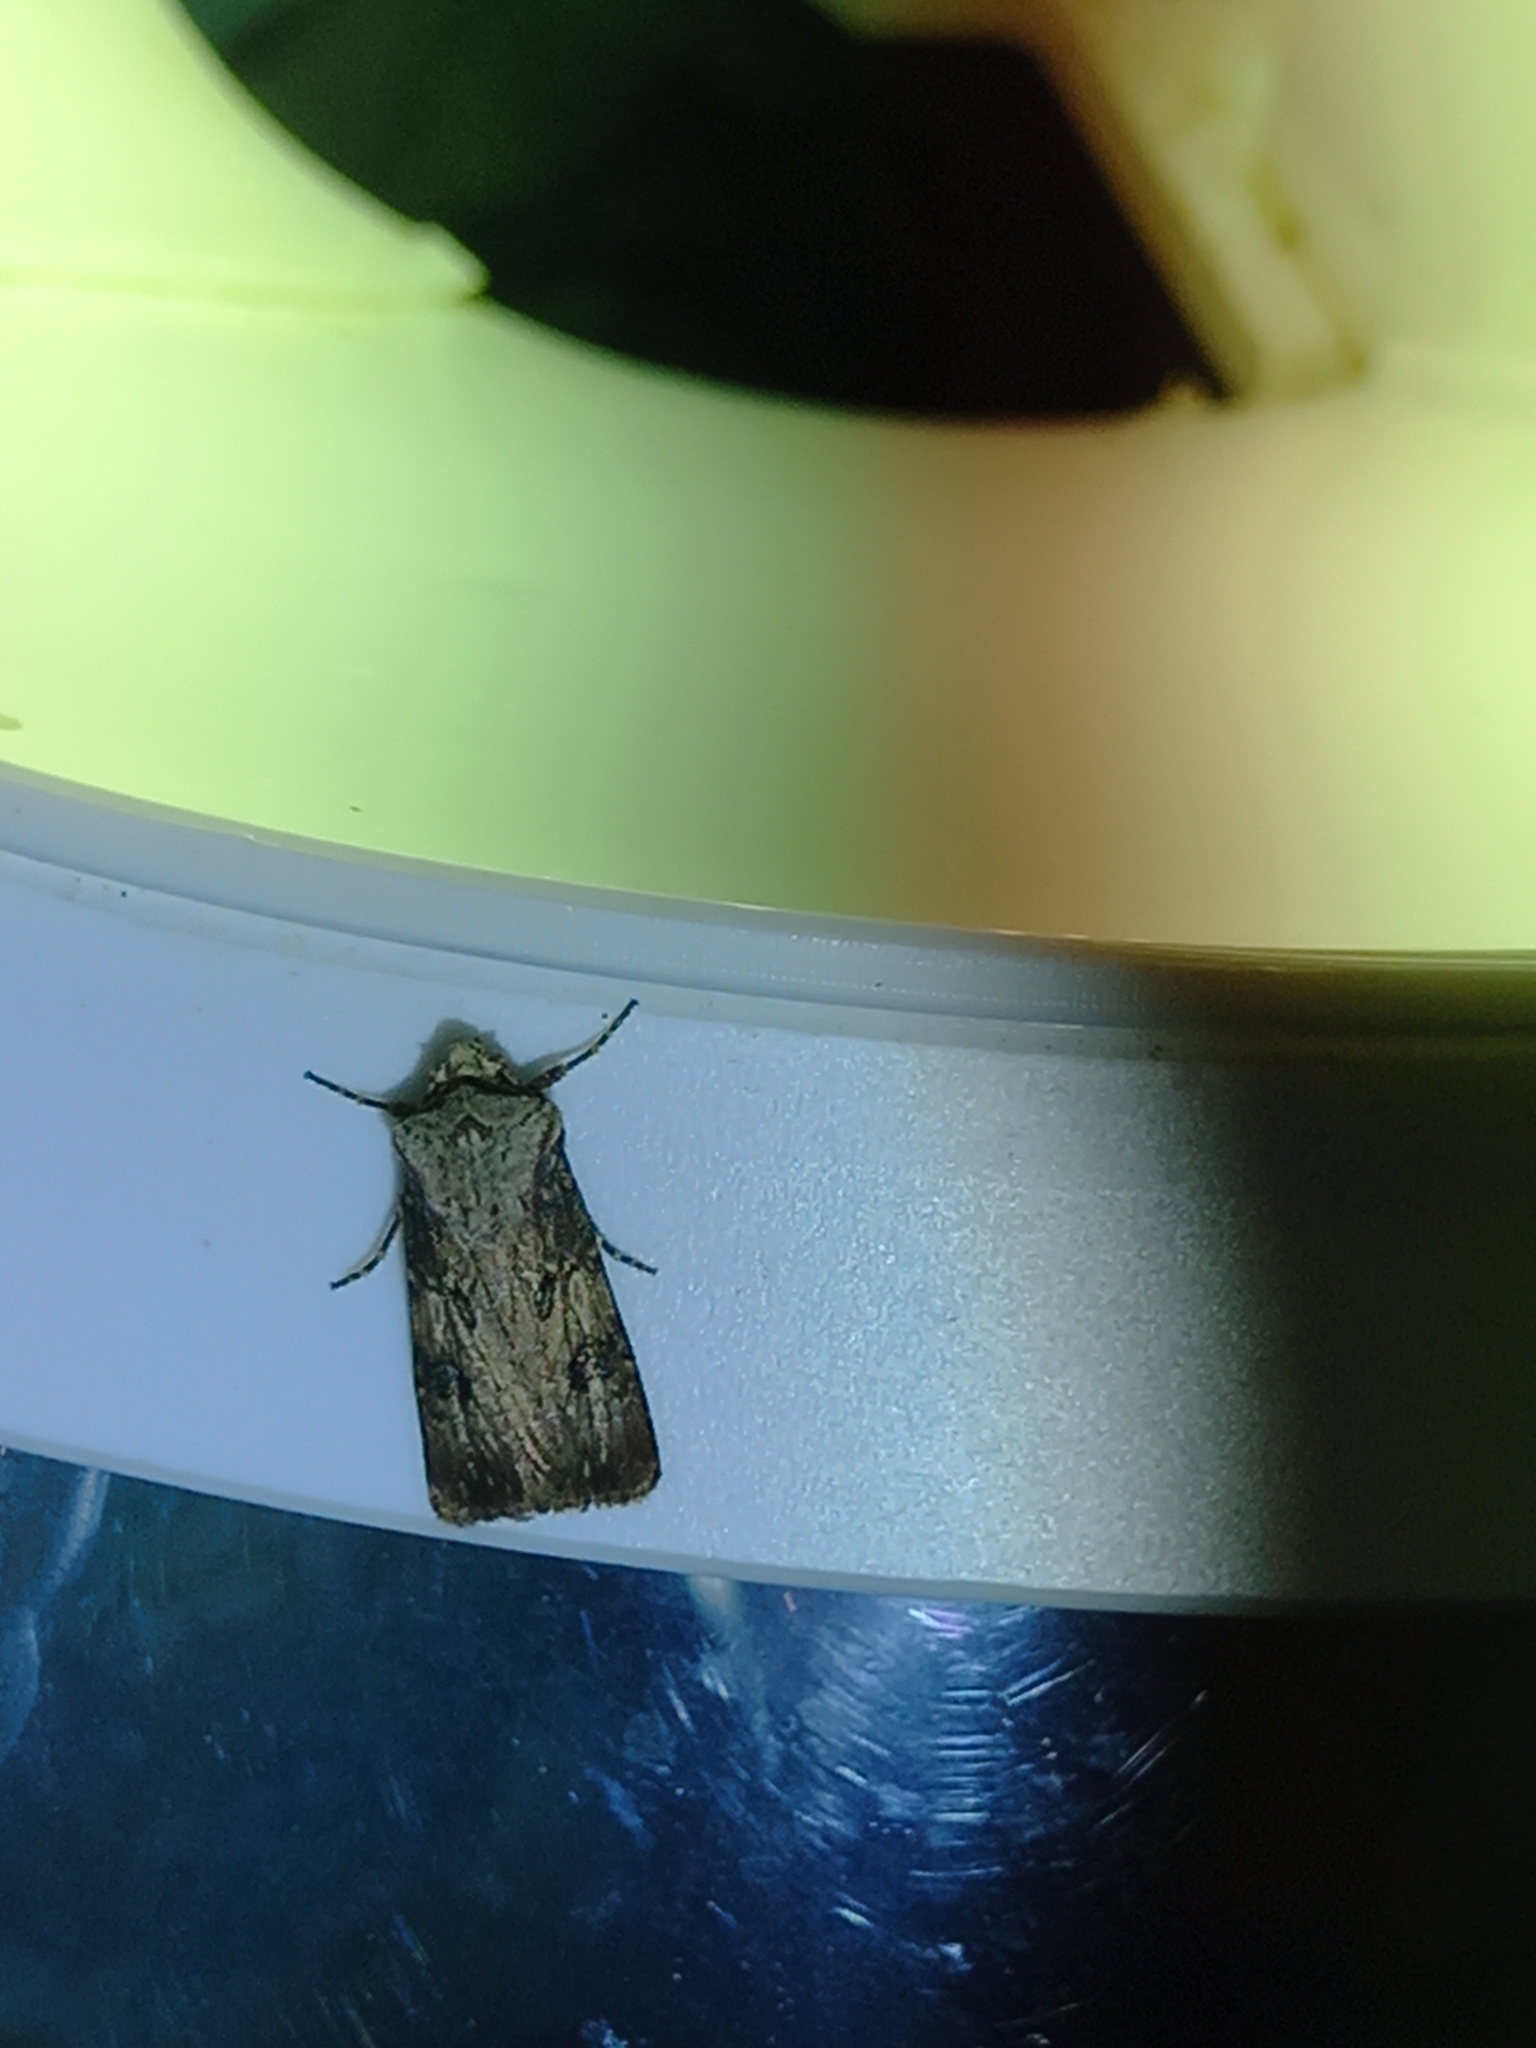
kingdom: Animalia
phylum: Arthropoda
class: Insecta
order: Lepidoptera
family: Noctuidae
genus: Agrotis
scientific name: Agrotis puta
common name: Shuttle-shaped dart
